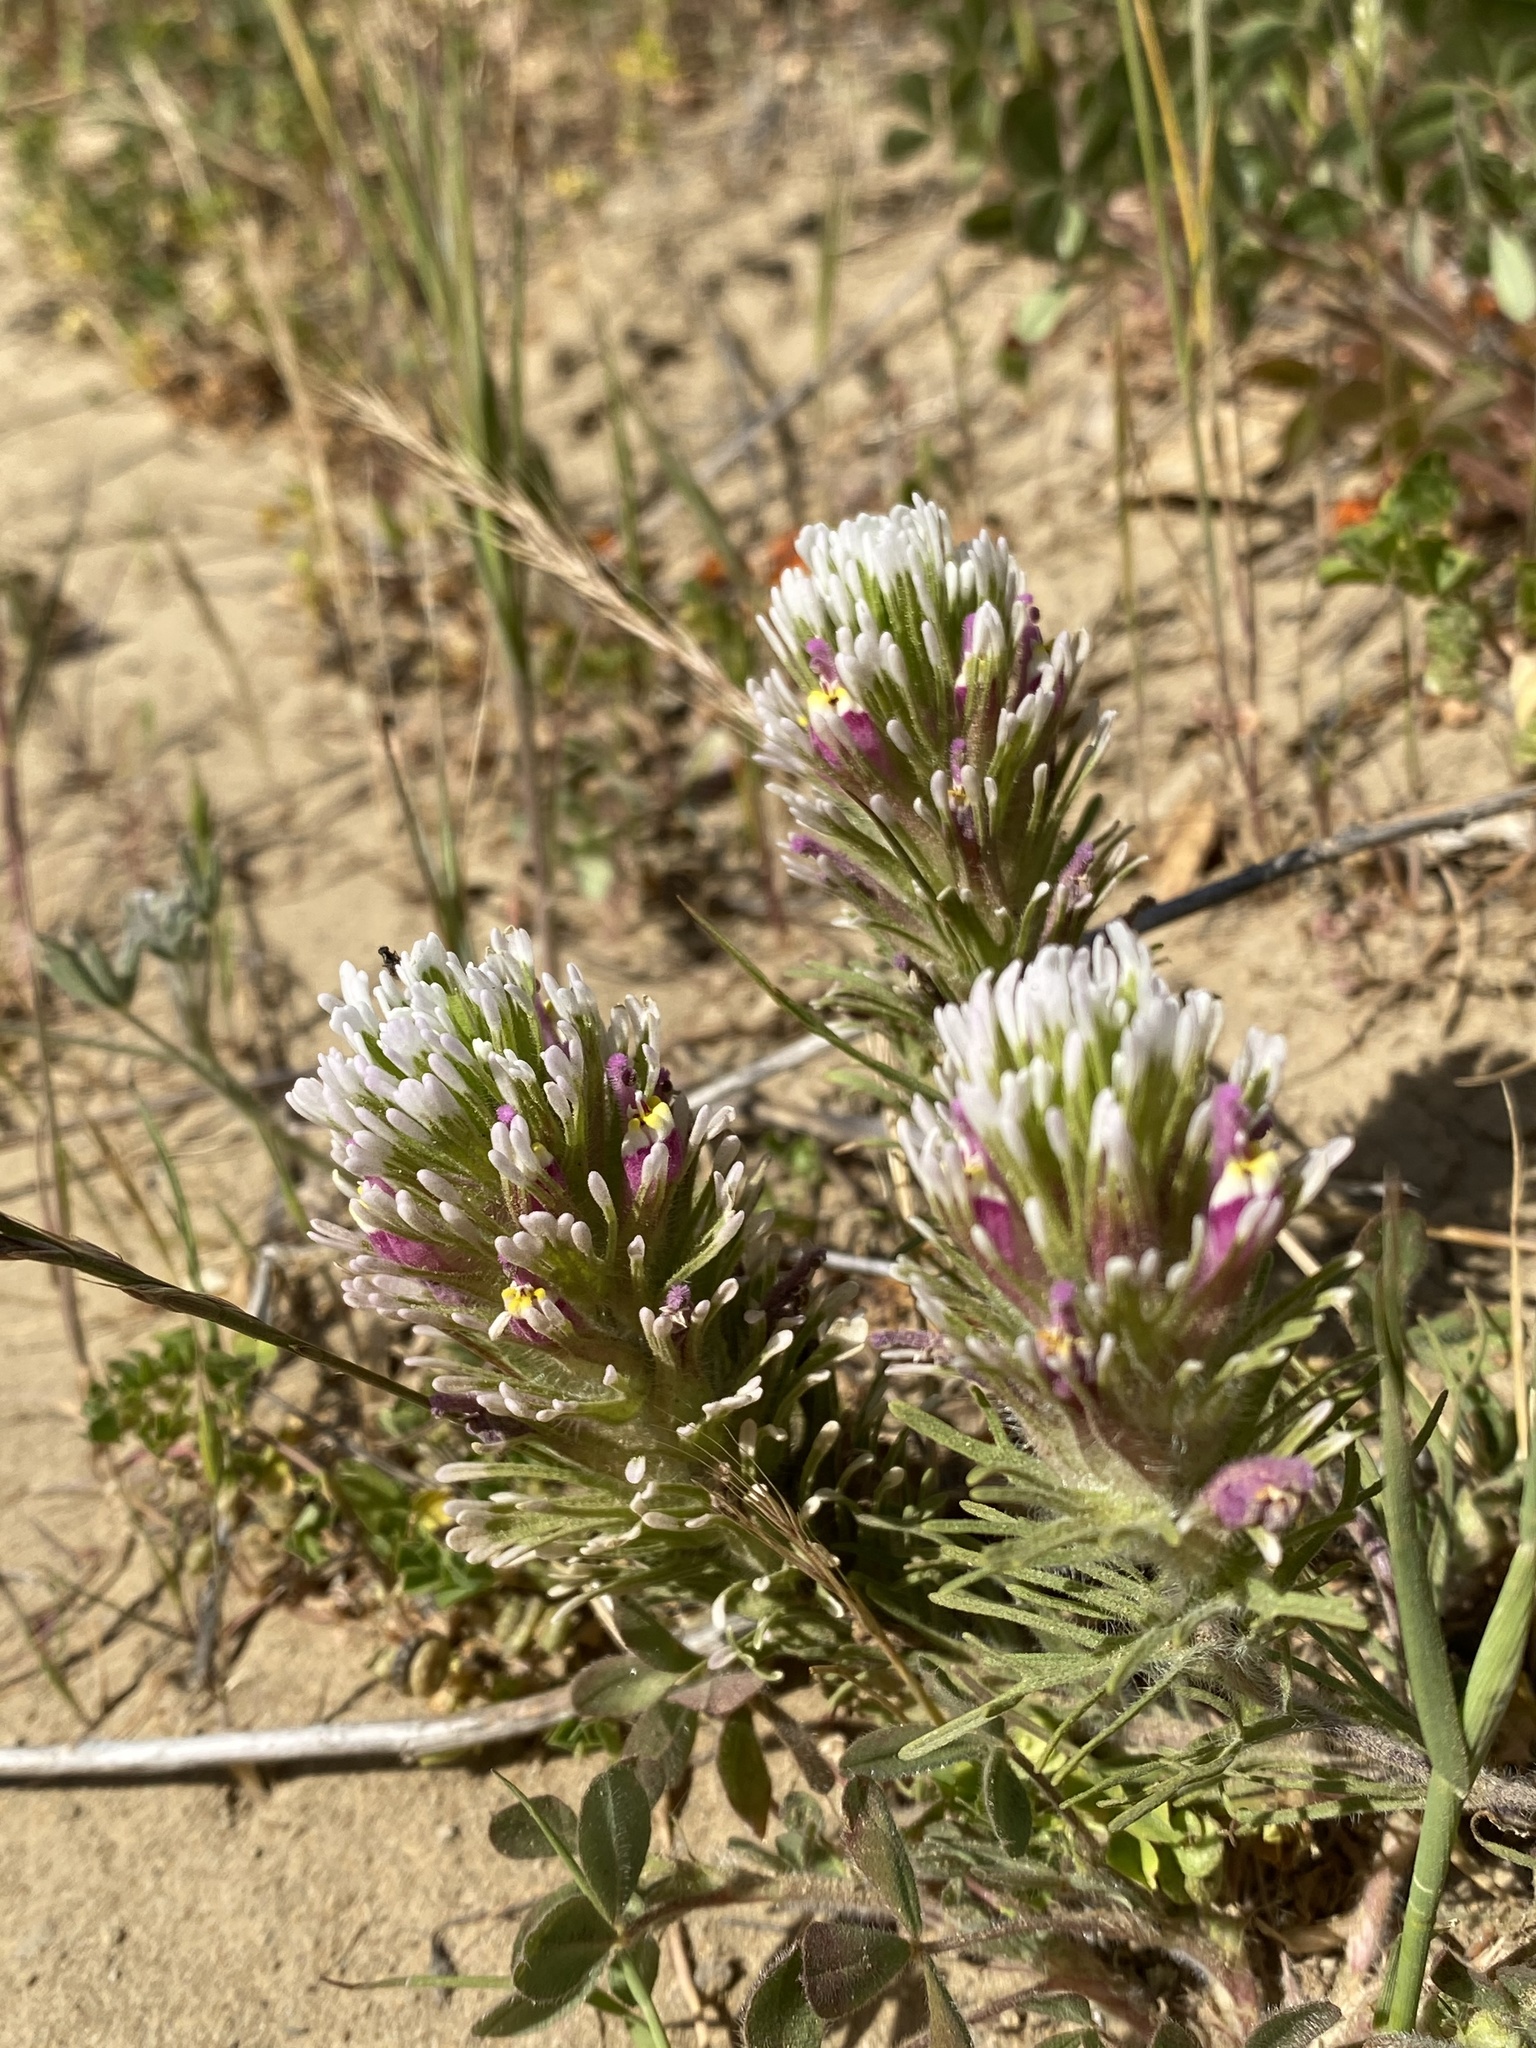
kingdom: Plantae
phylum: Tracheophyta
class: Magnoliopsida
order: Lamiales
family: Orobanchaceae
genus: Castilleja
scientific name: Castilleja exserta
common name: Purple owl-clover
